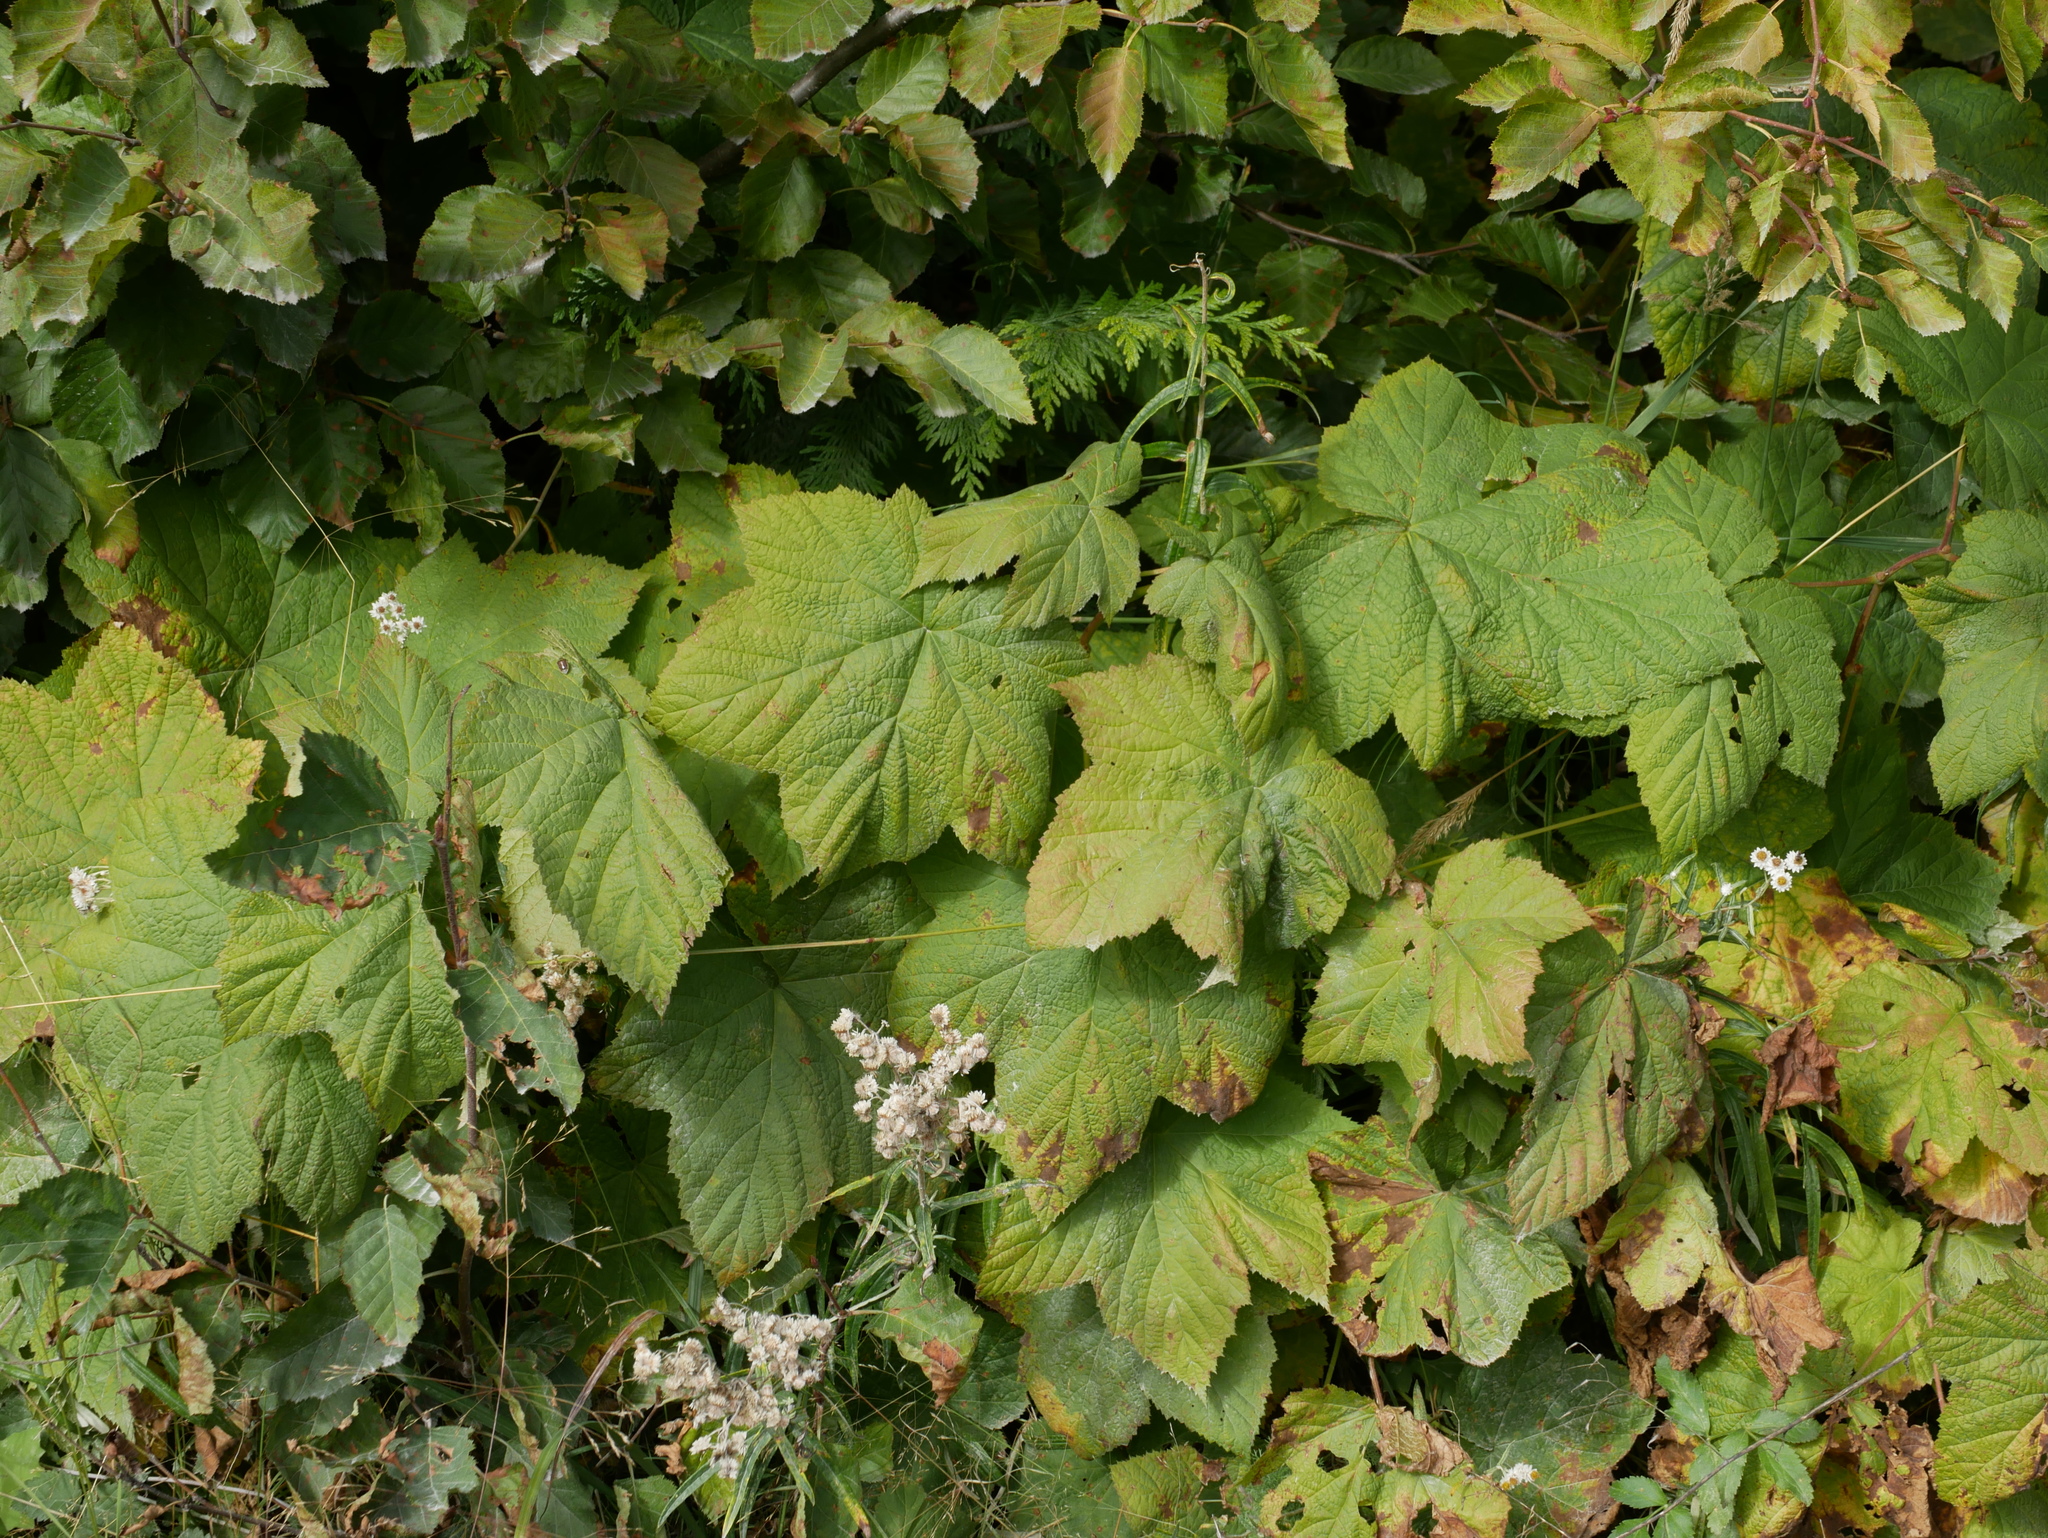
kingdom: Plantae
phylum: Tracheophyta
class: Magnoliopsida
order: Rosales
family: Rosaceae
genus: Rubus
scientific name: Rubus parviflorus
